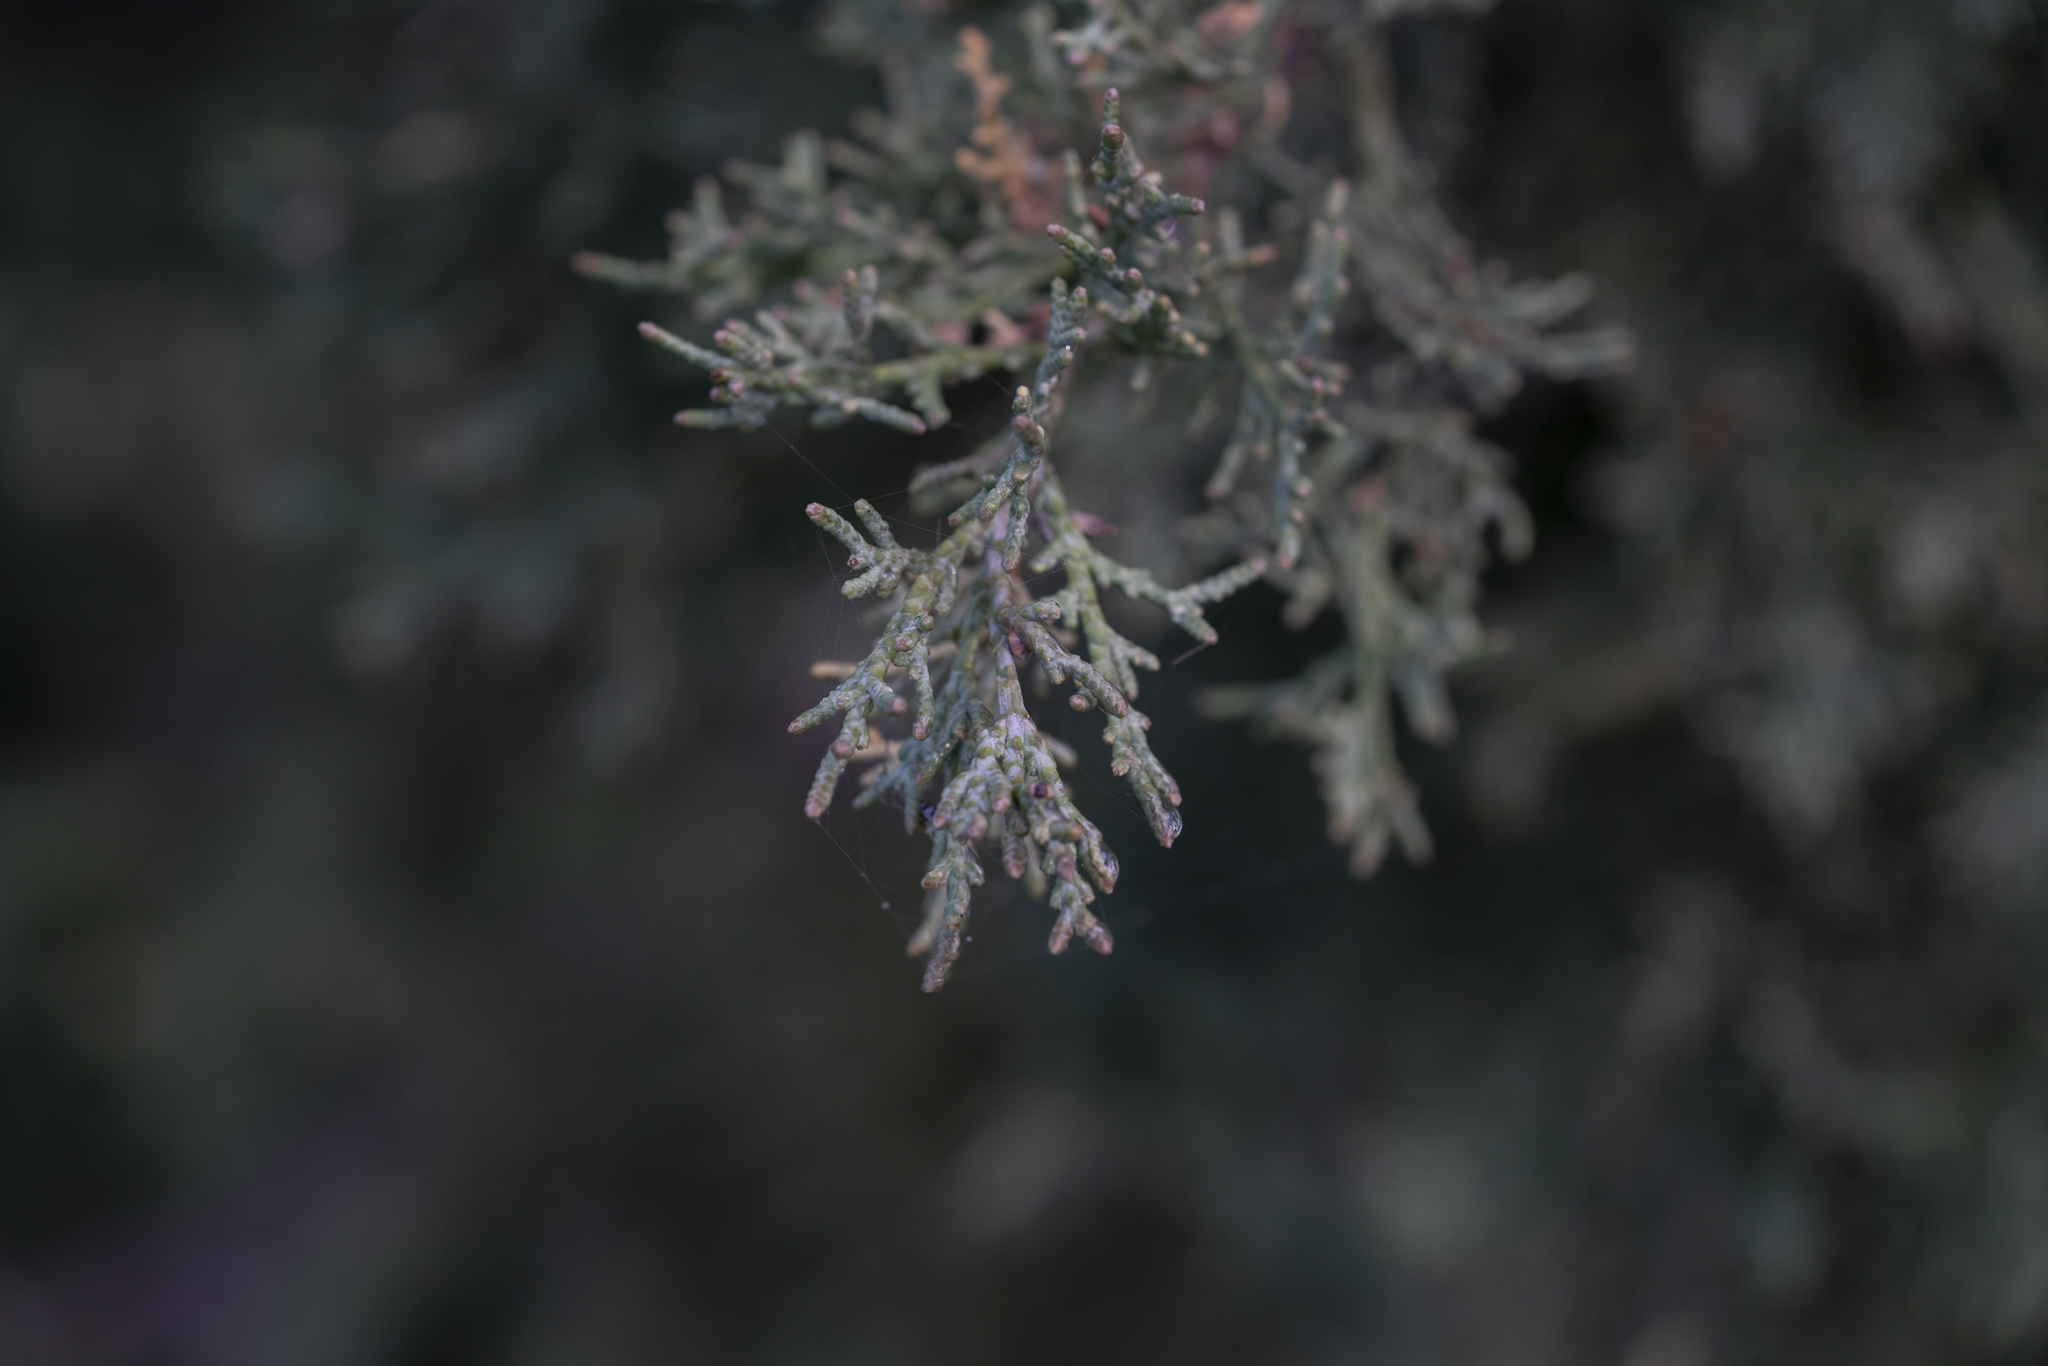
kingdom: Plantae
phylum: Tracheophyta
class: Pinopsida
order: Pinales
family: Cupressaceae
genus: Cupressus
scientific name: Cupressus sempervirens
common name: Italian cypress
